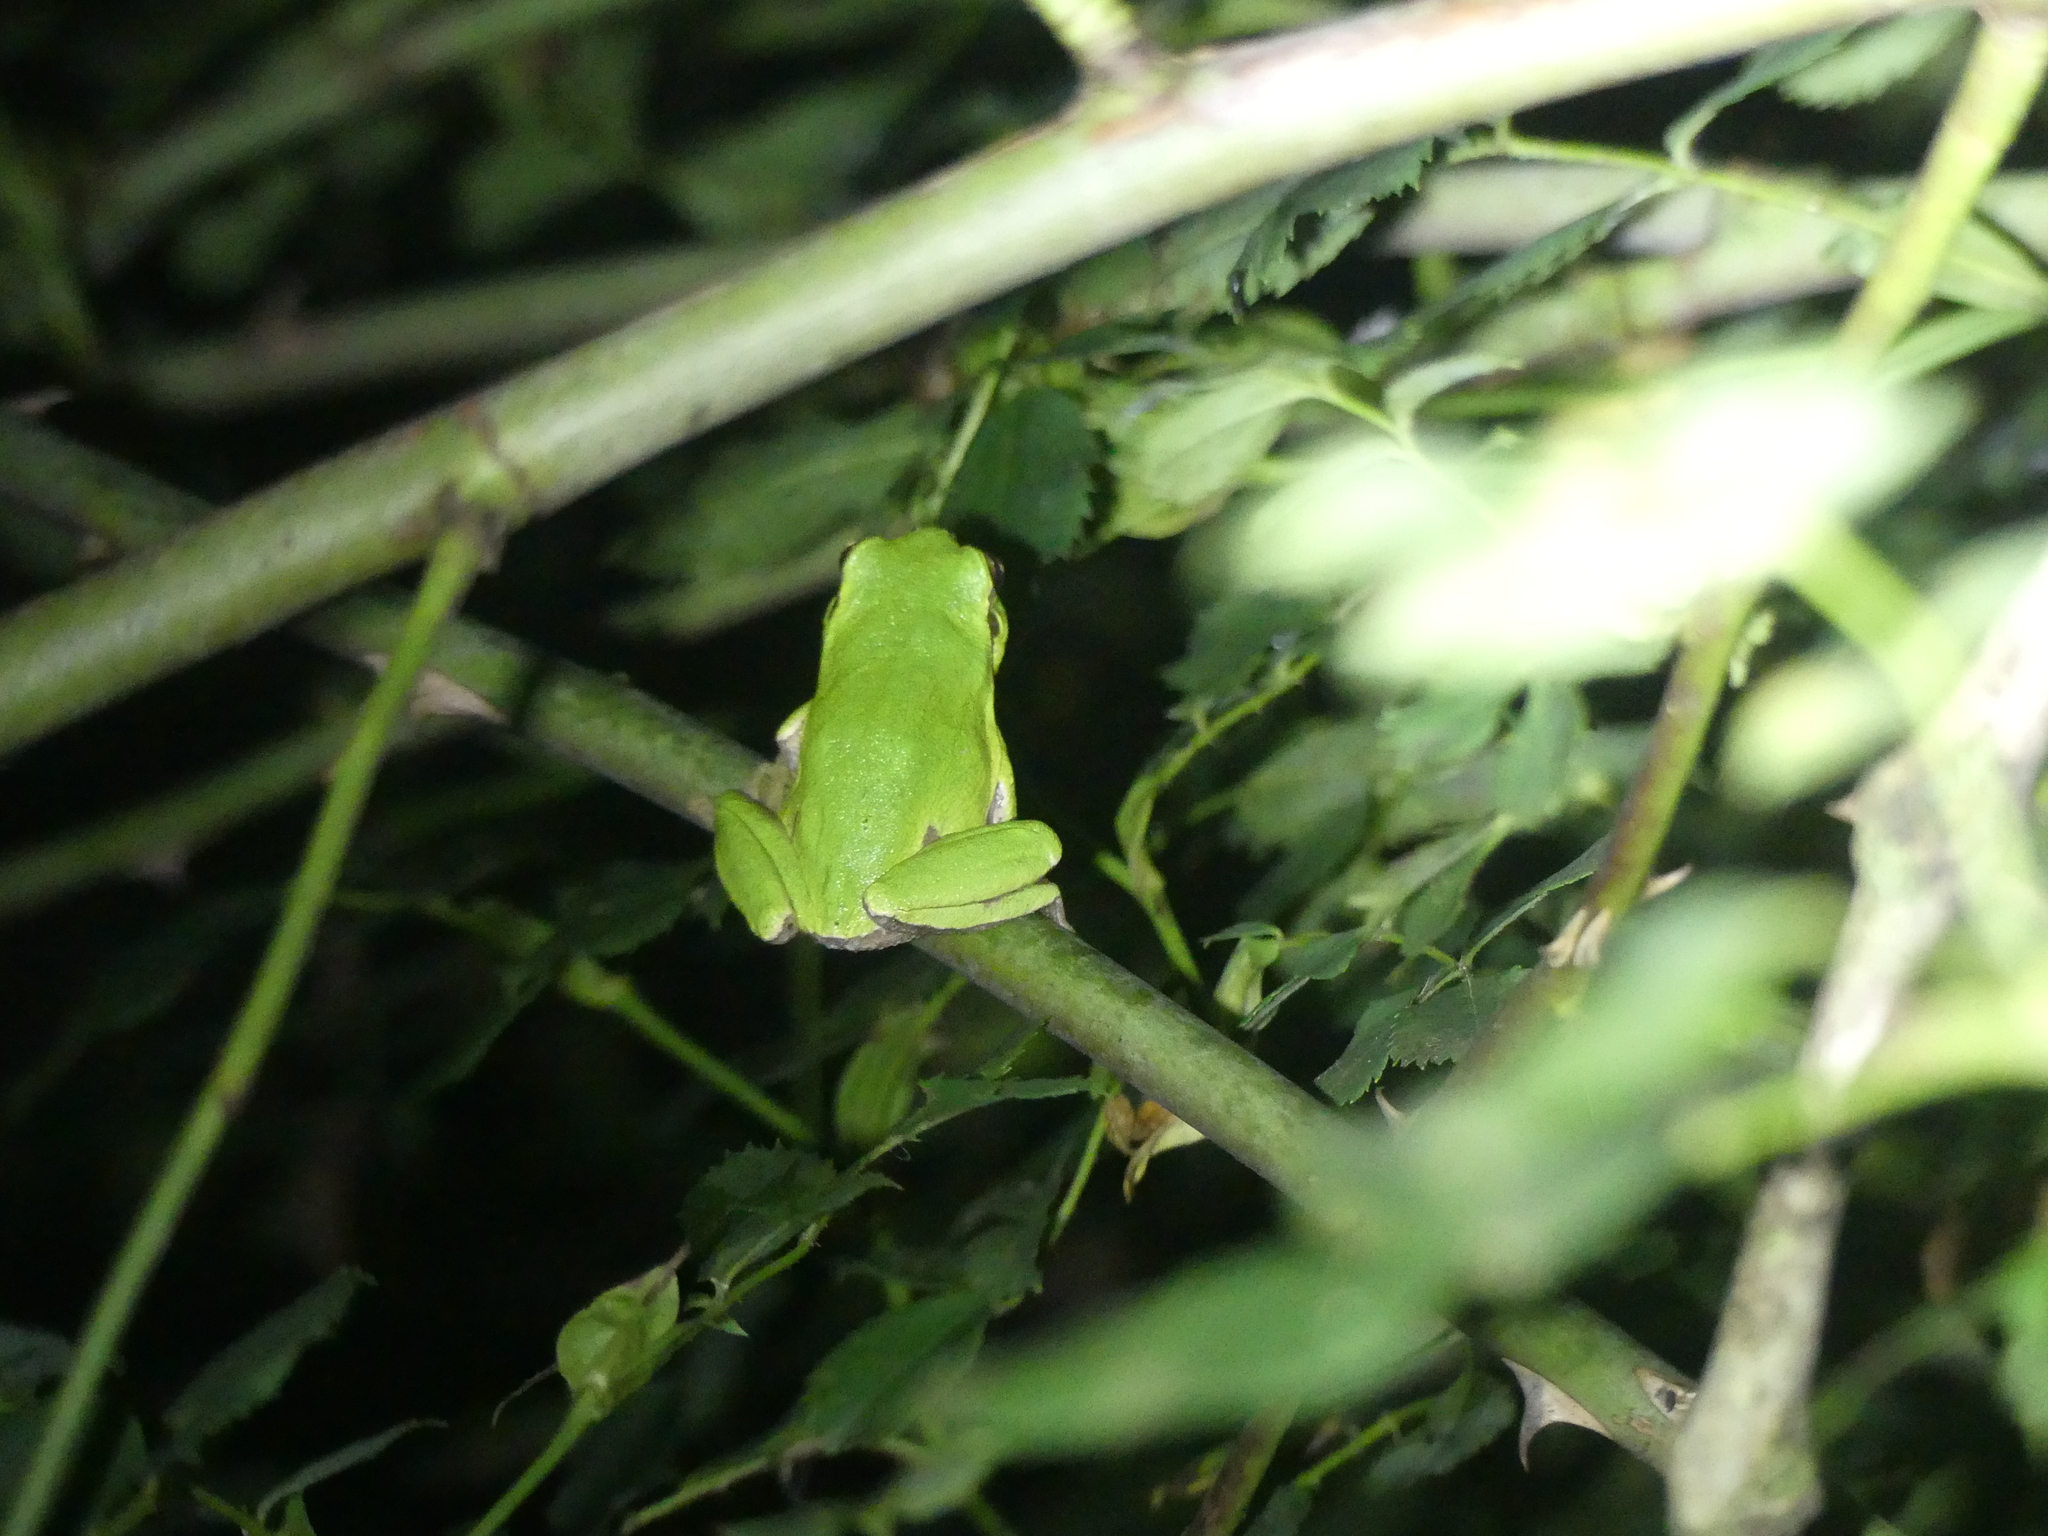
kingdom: Animalia
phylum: Chordata
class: Amphibia
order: Anura
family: Hylidae
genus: Hyla
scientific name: Hyla intermedia
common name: Italian tree frog
